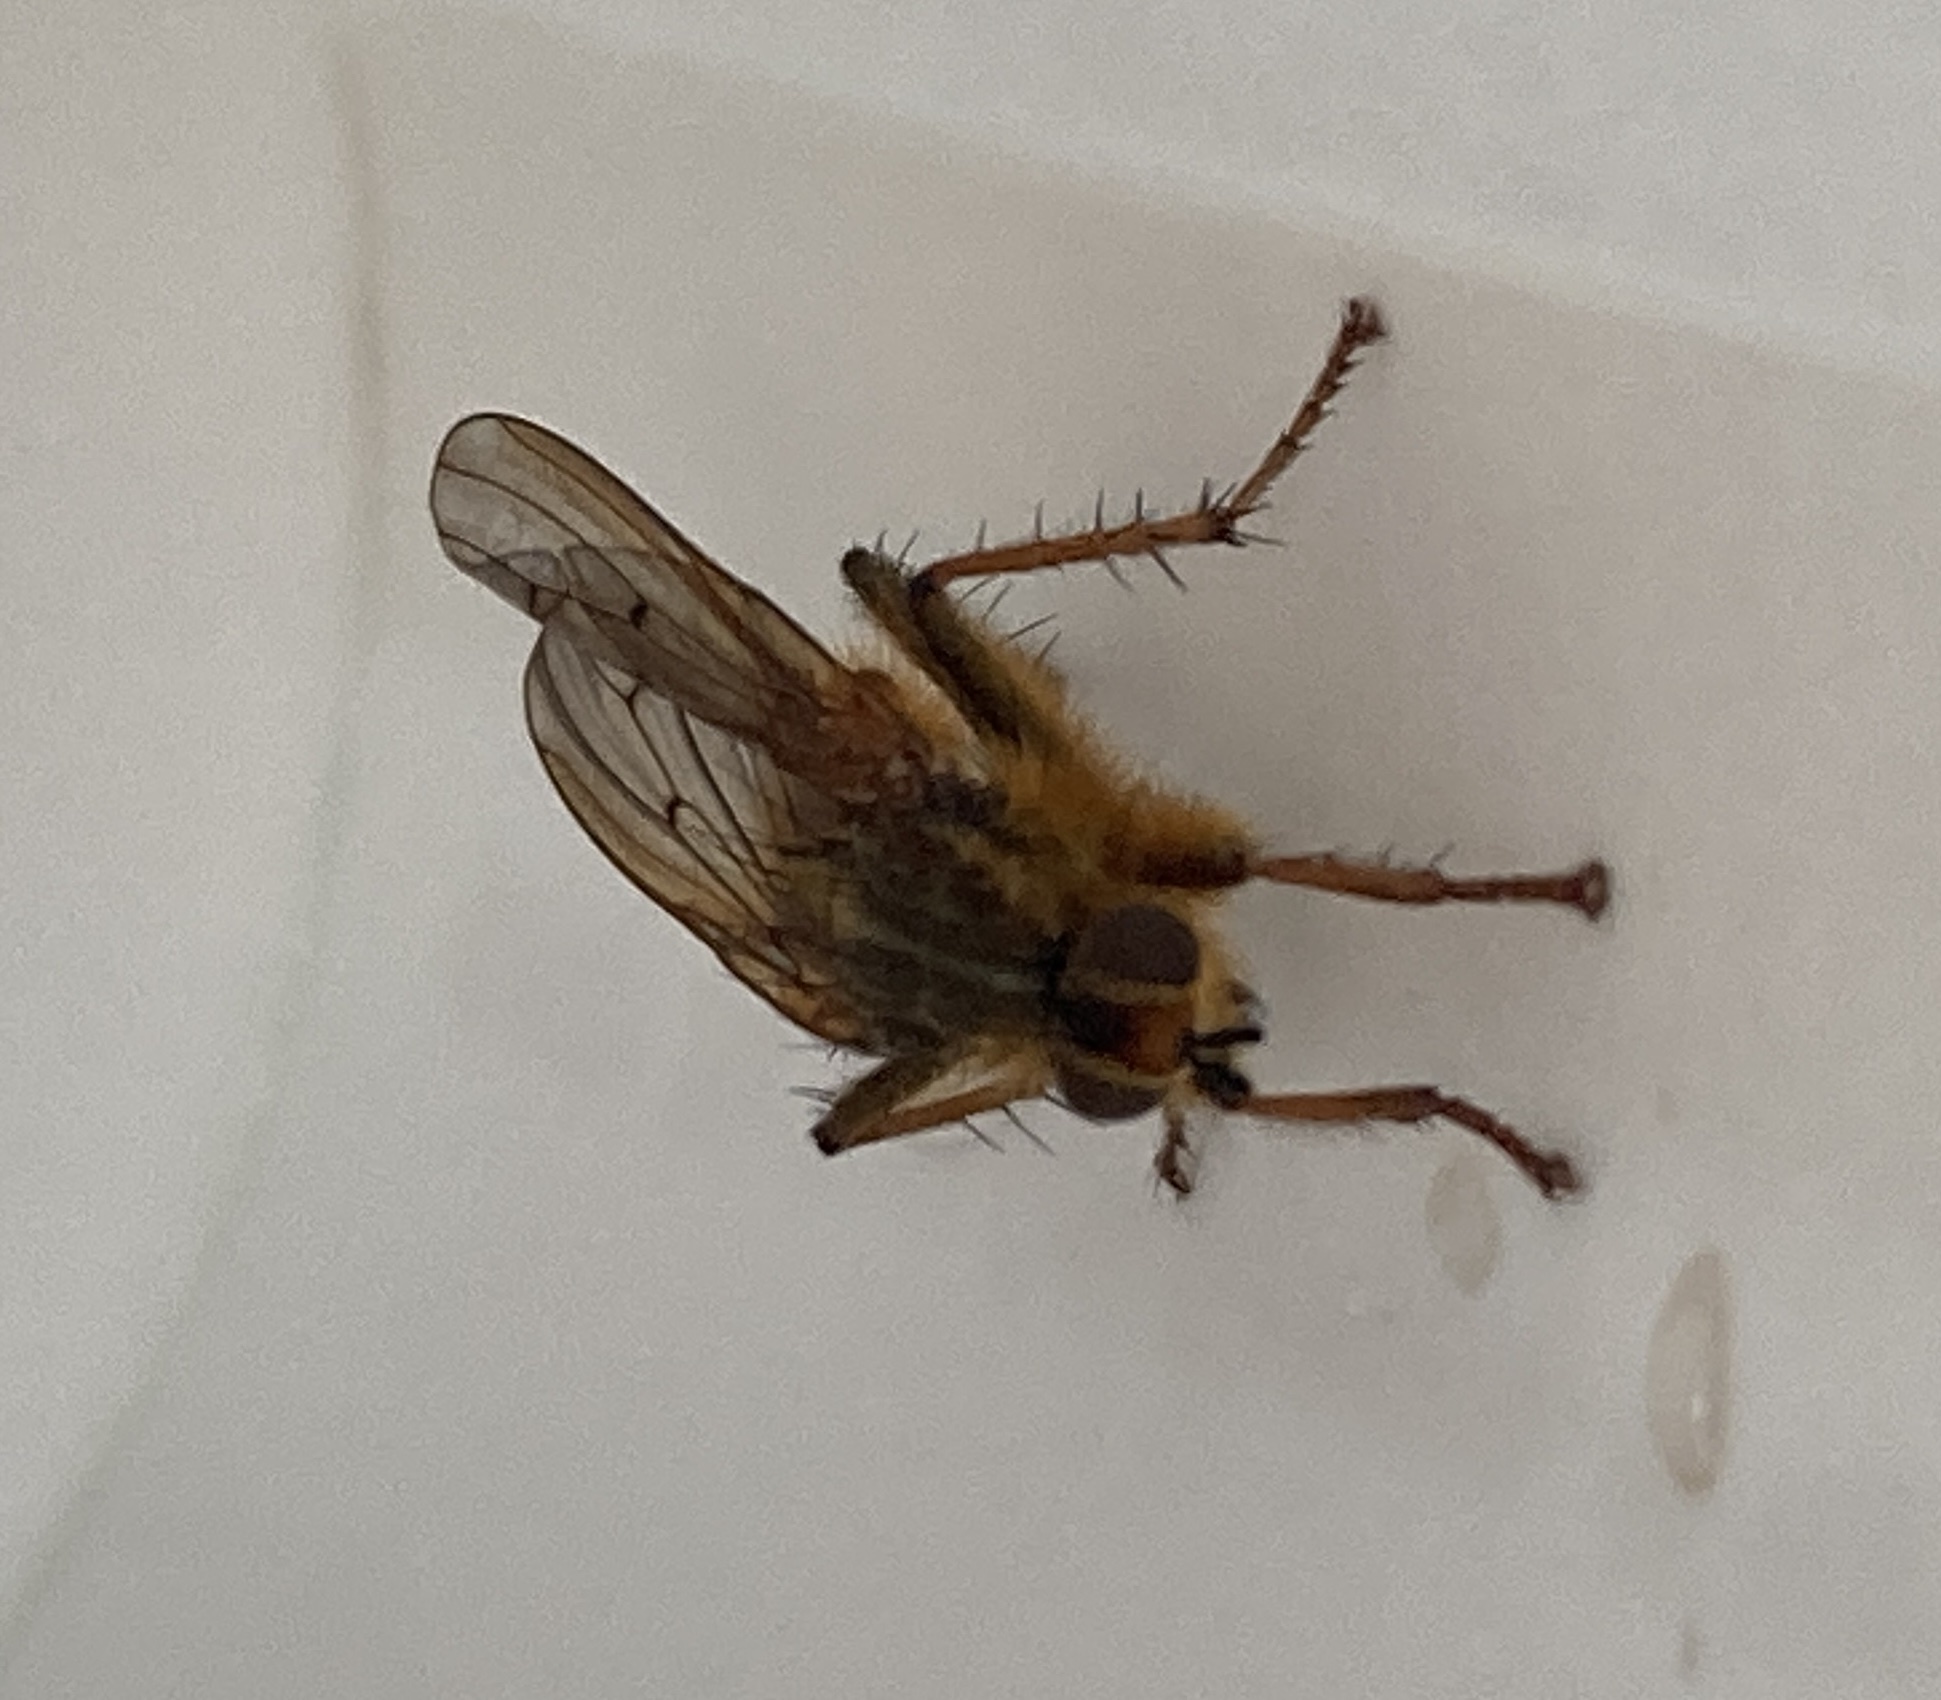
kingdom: Animalia
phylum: Arthropoda
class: Insecta
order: Diptera
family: Scathophagidae
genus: Scathophaga
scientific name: Scathophaga stercoraria
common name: Yellow dung fly
